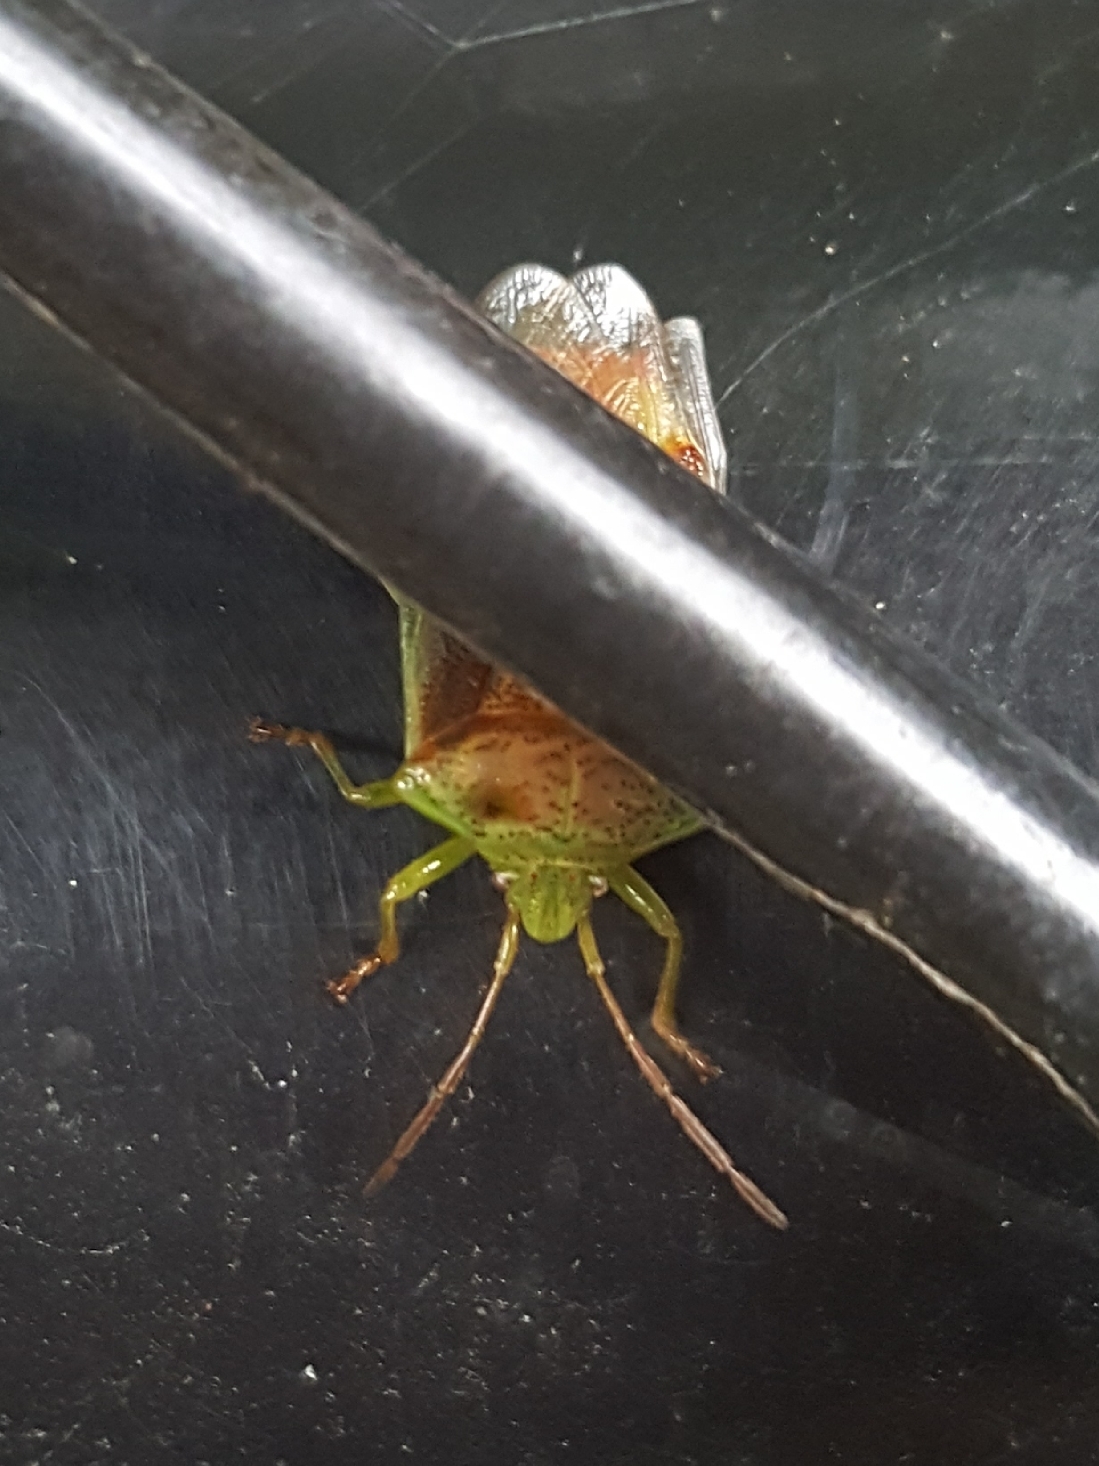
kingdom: Animalia
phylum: Arthropoda
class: Insecta
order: Hemiptera
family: Acanthosomatidae
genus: Elasmostethus
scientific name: Elasmostethus cruciatus
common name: Red-cross shield bug
